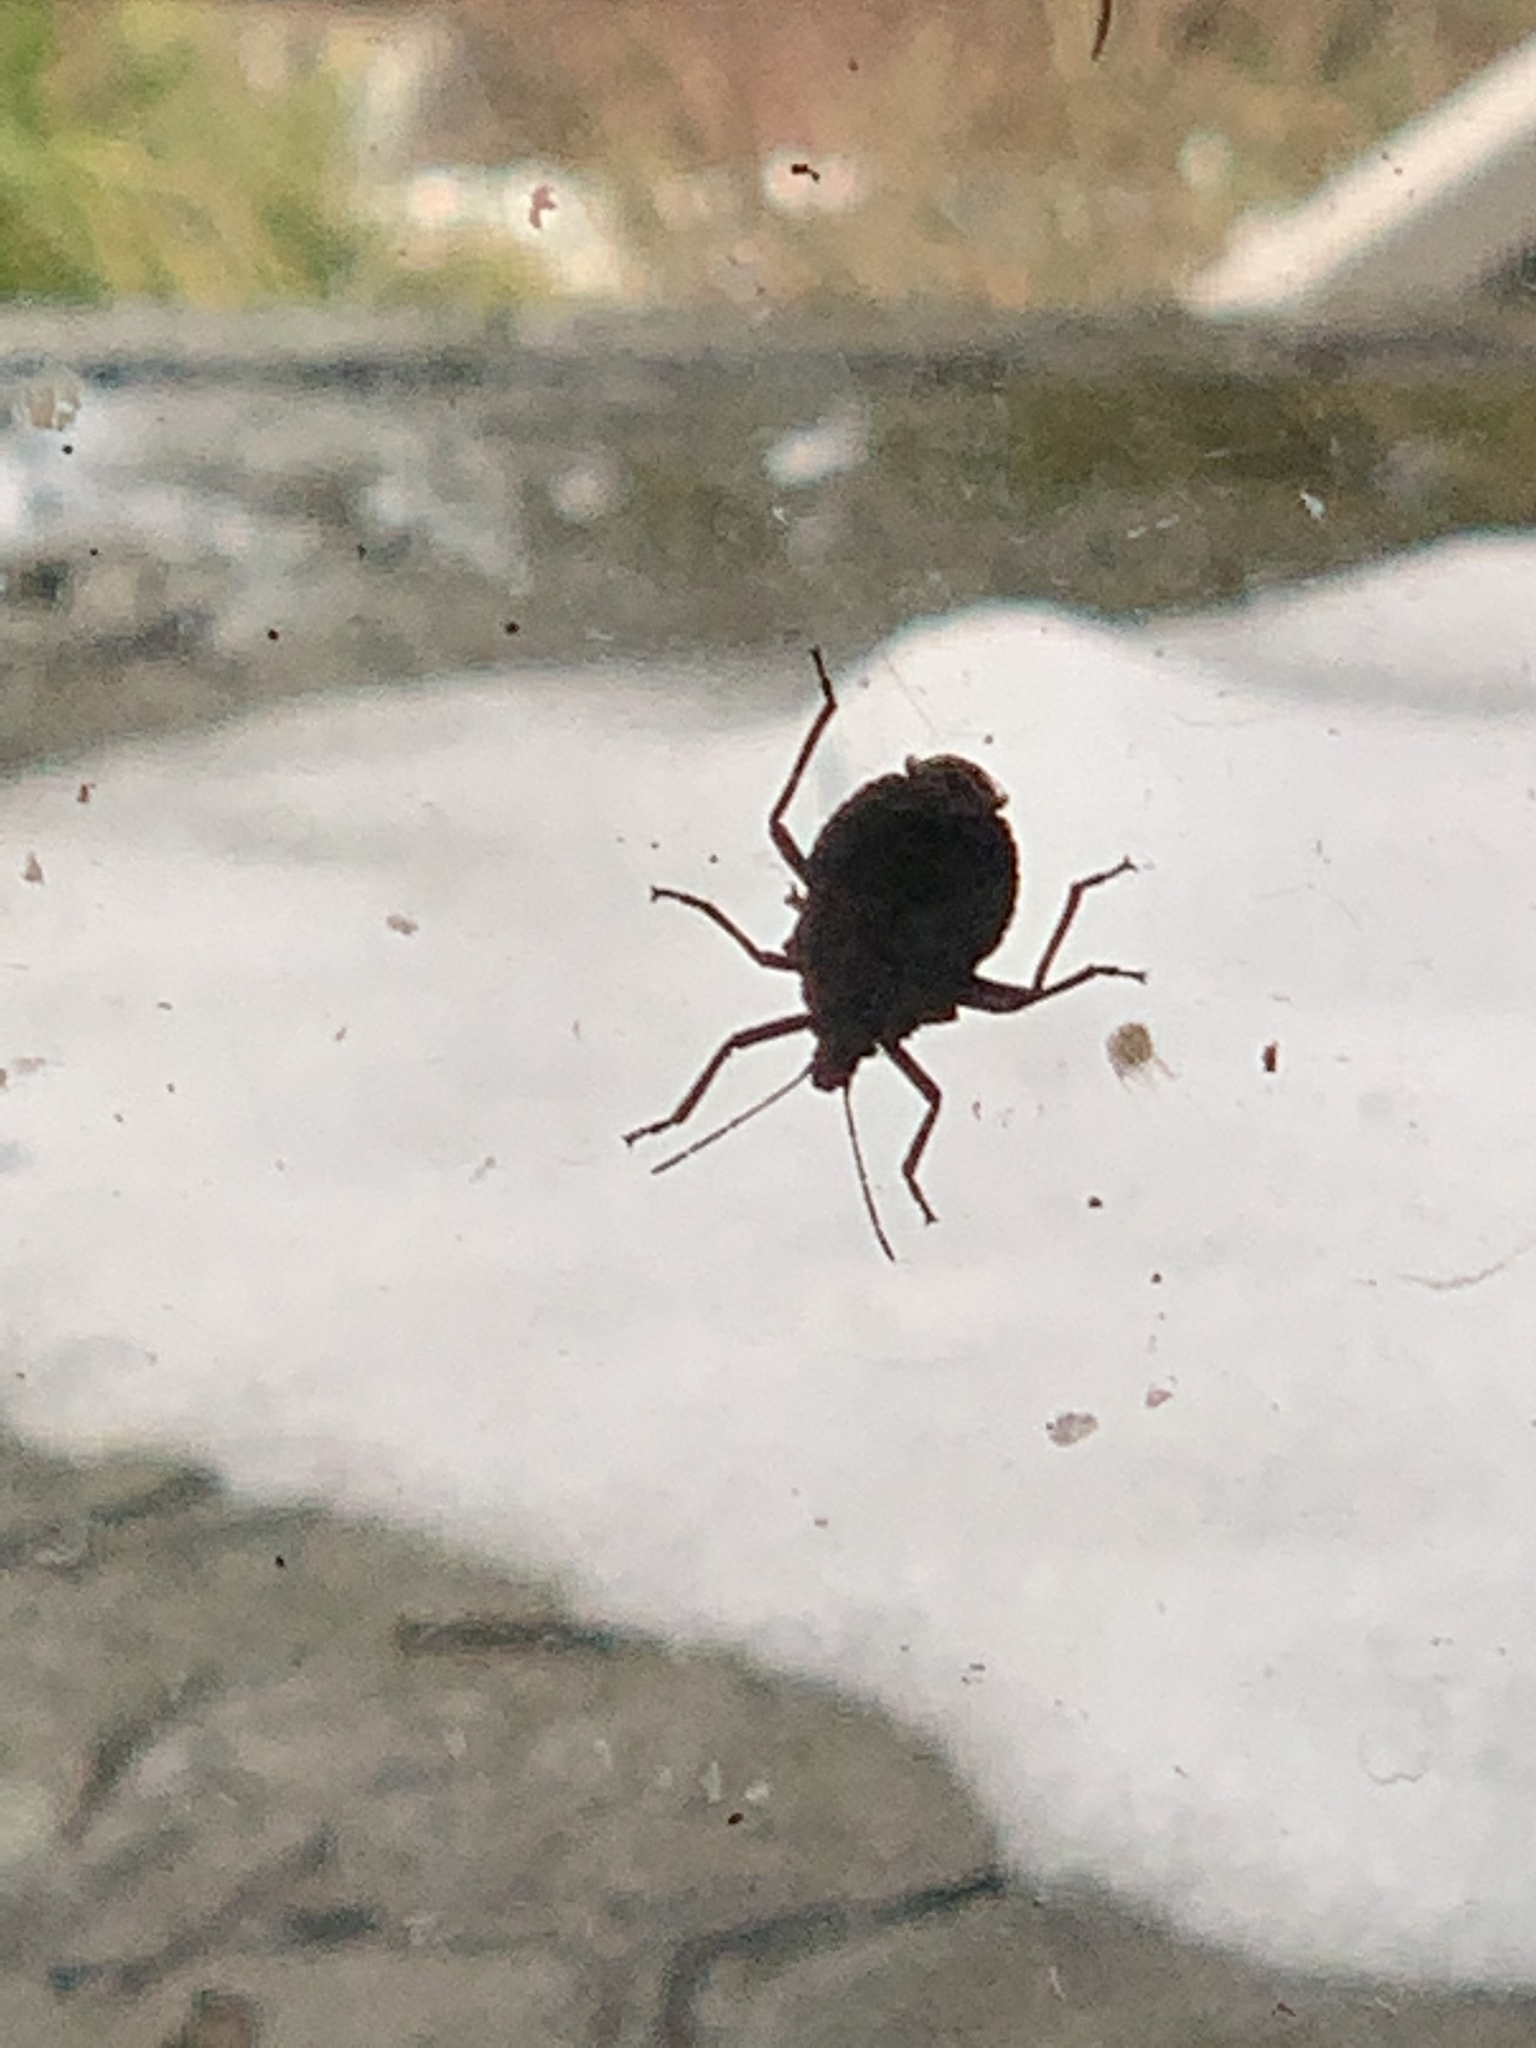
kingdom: Animalia
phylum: Arthropoda
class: Insecta
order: Hemiptera
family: Pentatomidae
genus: Brochymena
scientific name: Brochymena affinis
